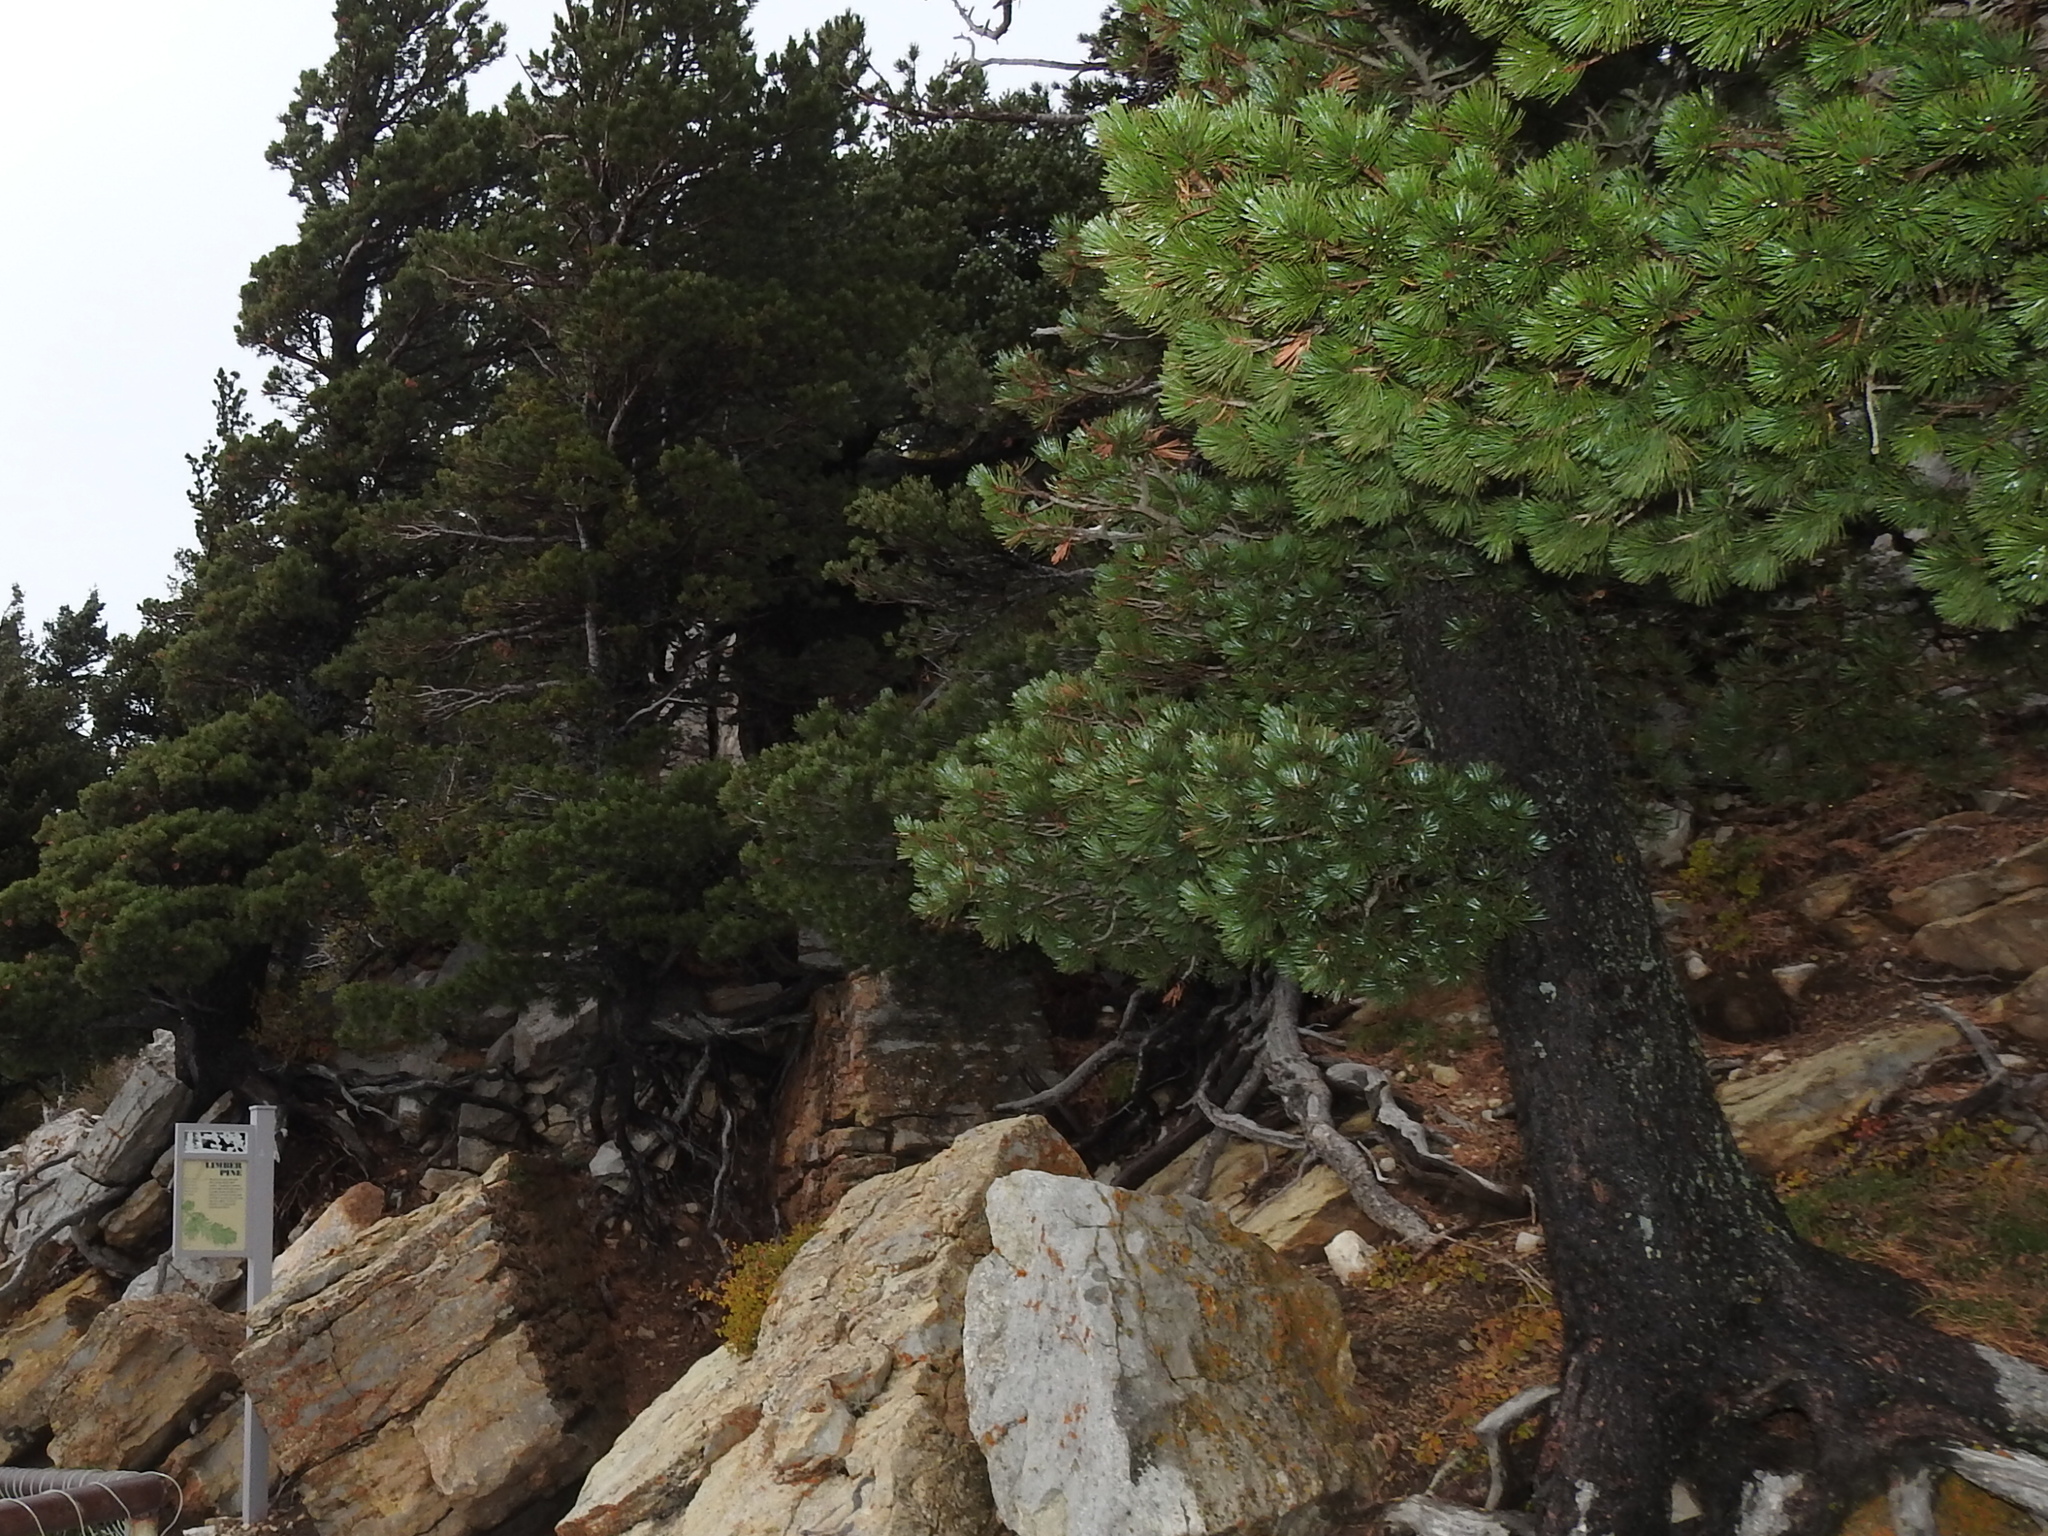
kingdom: Plantae
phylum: Tracheophyta
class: Pinopsida
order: Pinales
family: Pinaceae
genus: Pinus
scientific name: Pinus flexilis
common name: Limber pine
